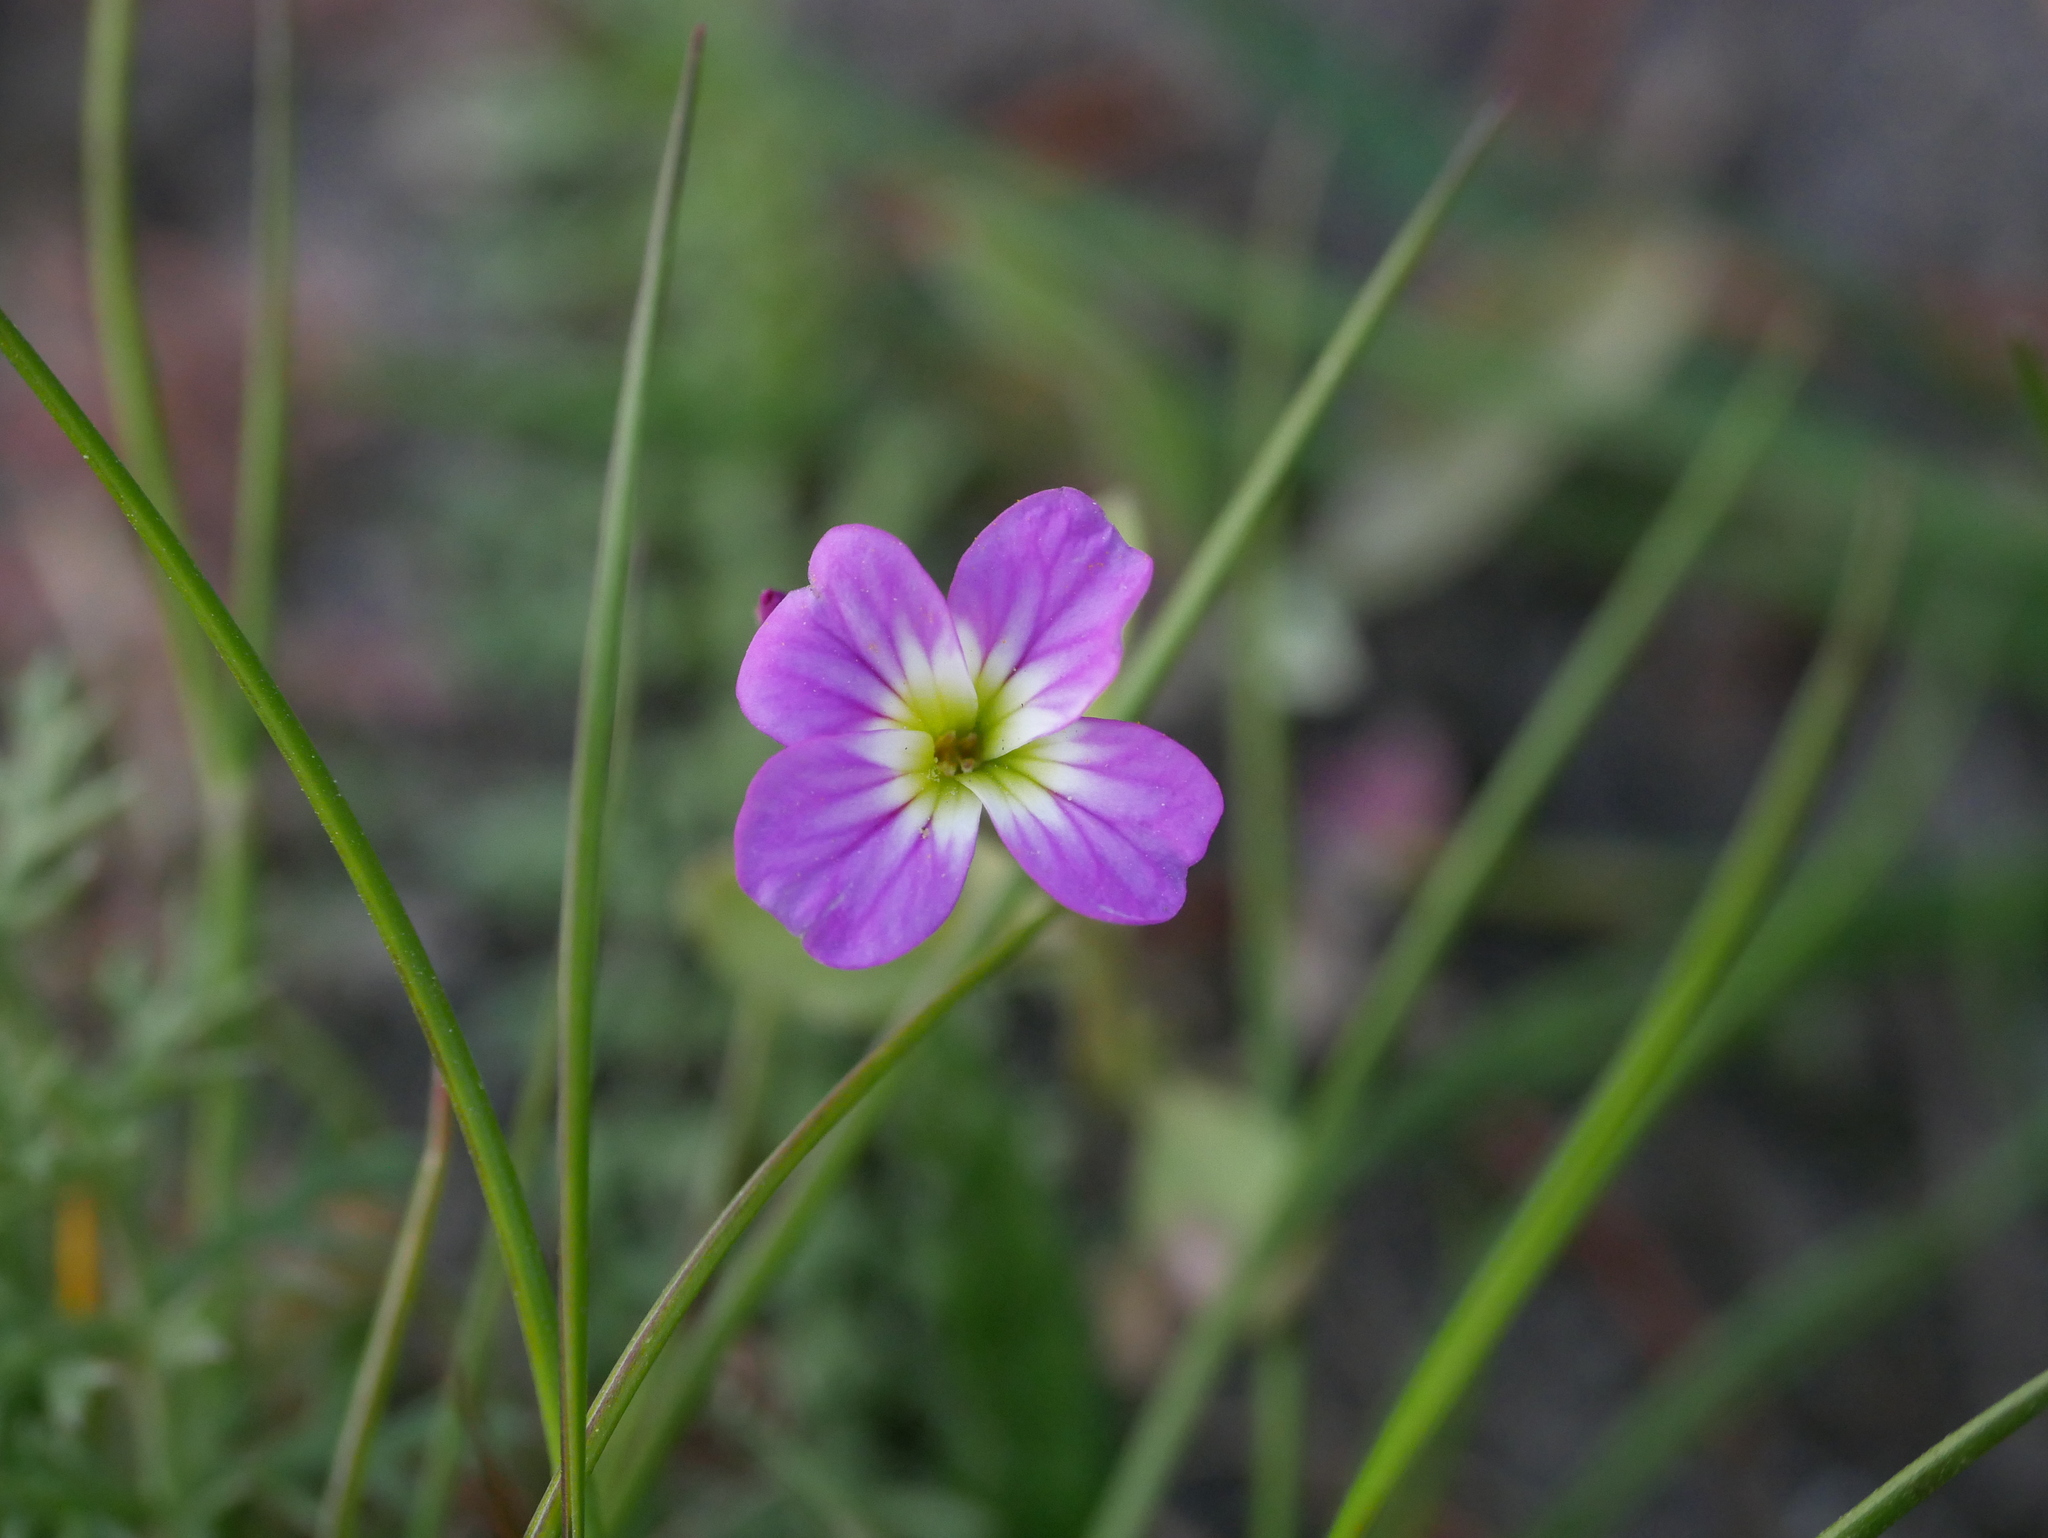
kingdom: Plantae
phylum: Tracheophyta
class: Magnoliopsida
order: Brassicales
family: Brassicaceae
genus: Malcolmia
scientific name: Malcolmia maritima
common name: Virginia stock
